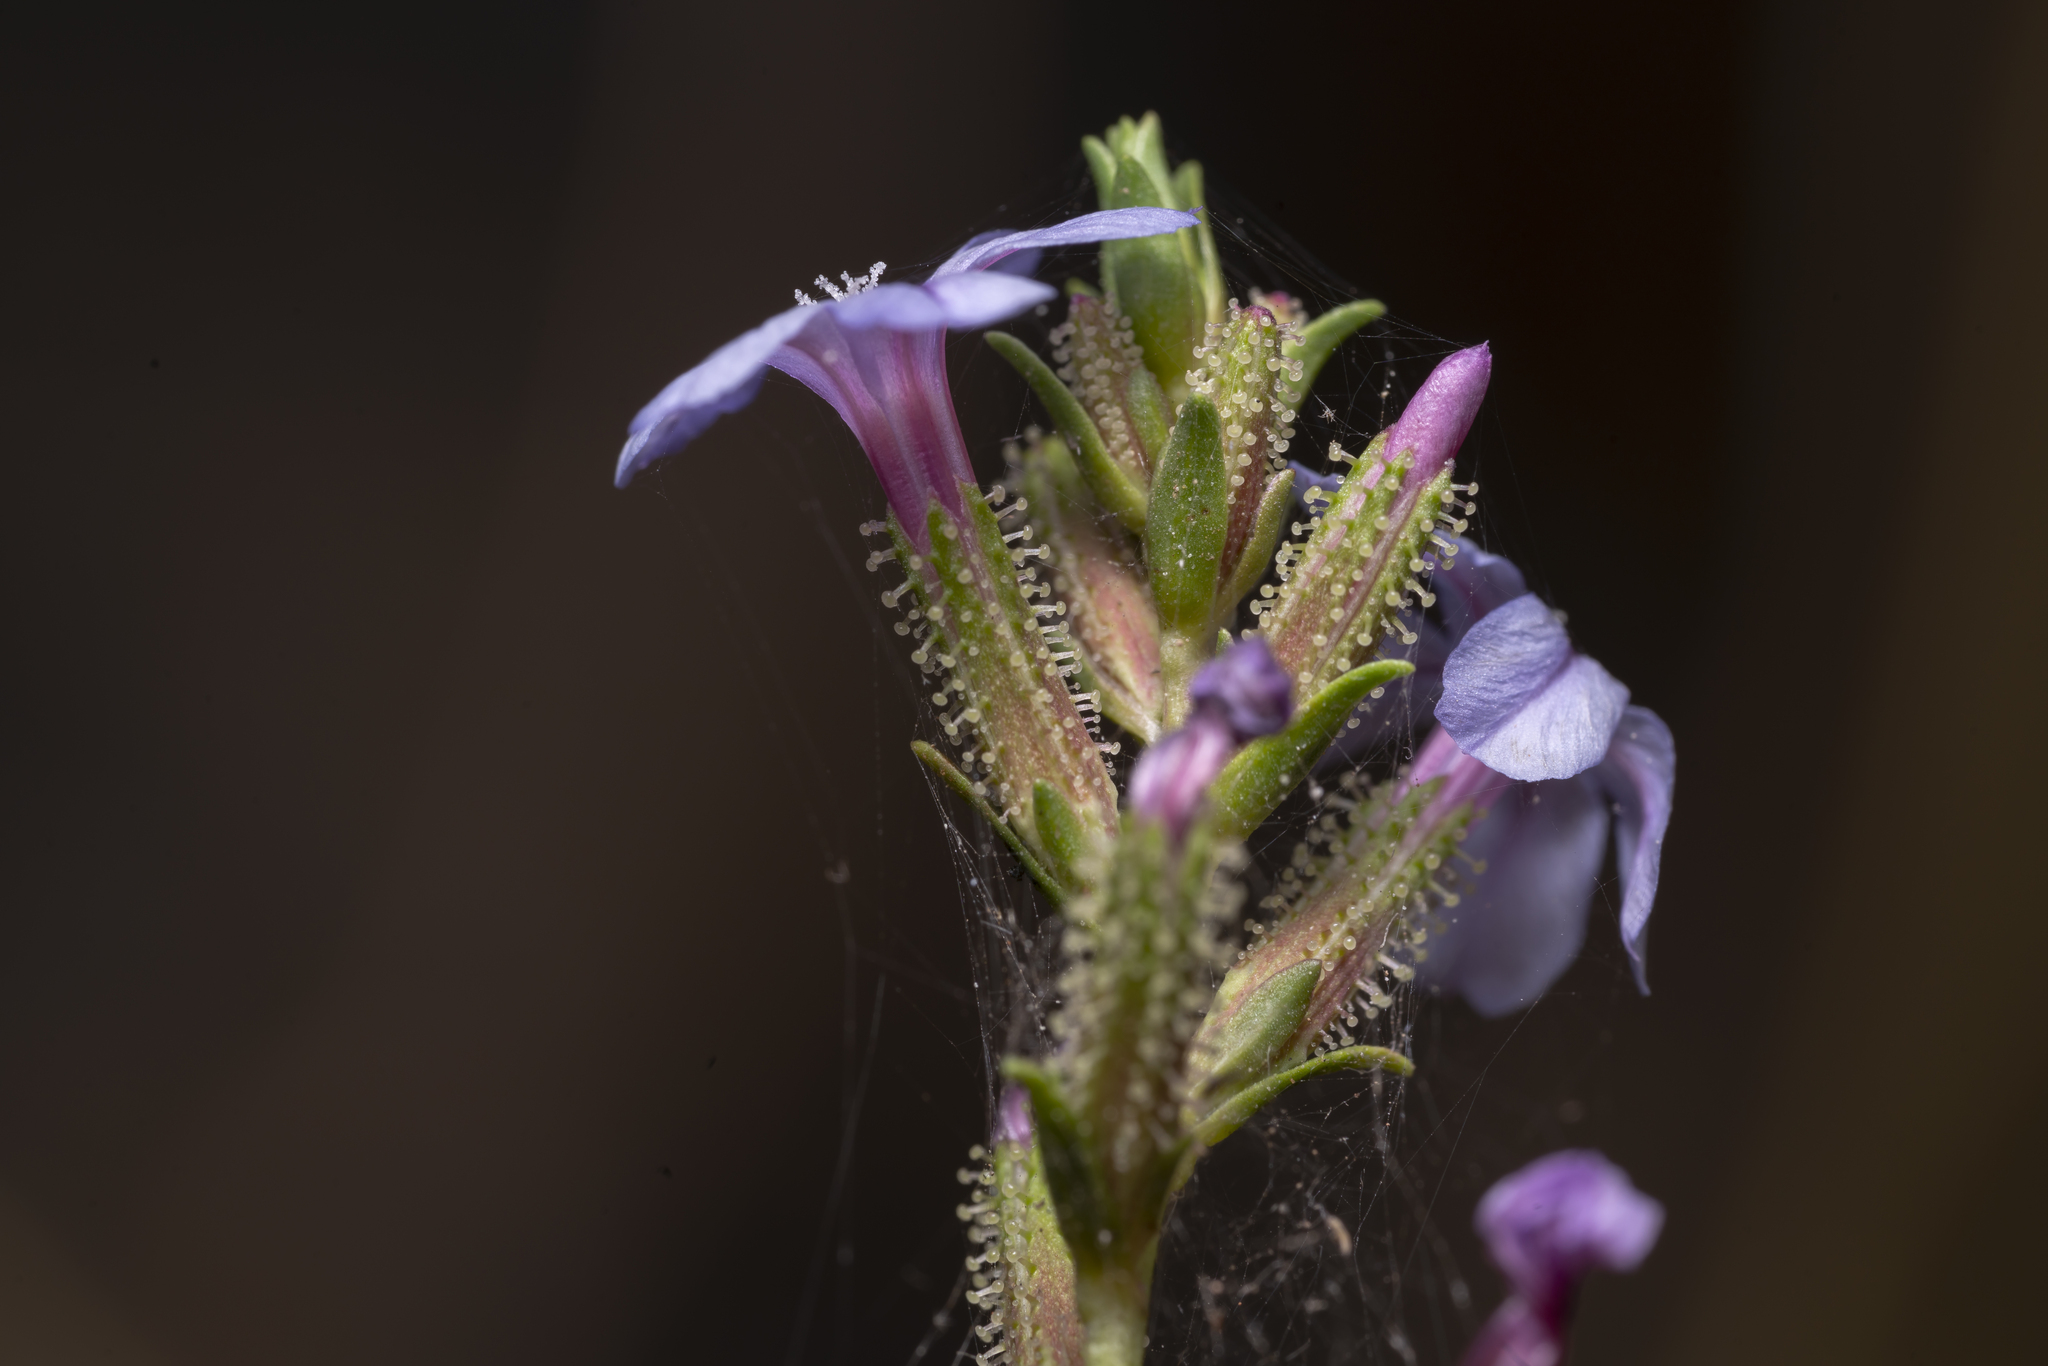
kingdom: Plantae
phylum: Tracheophyta
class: Magnoliopsida
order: Caryophyllales
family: Plumbaginaceae
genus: Plumbago
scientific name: Plumbago europaea
